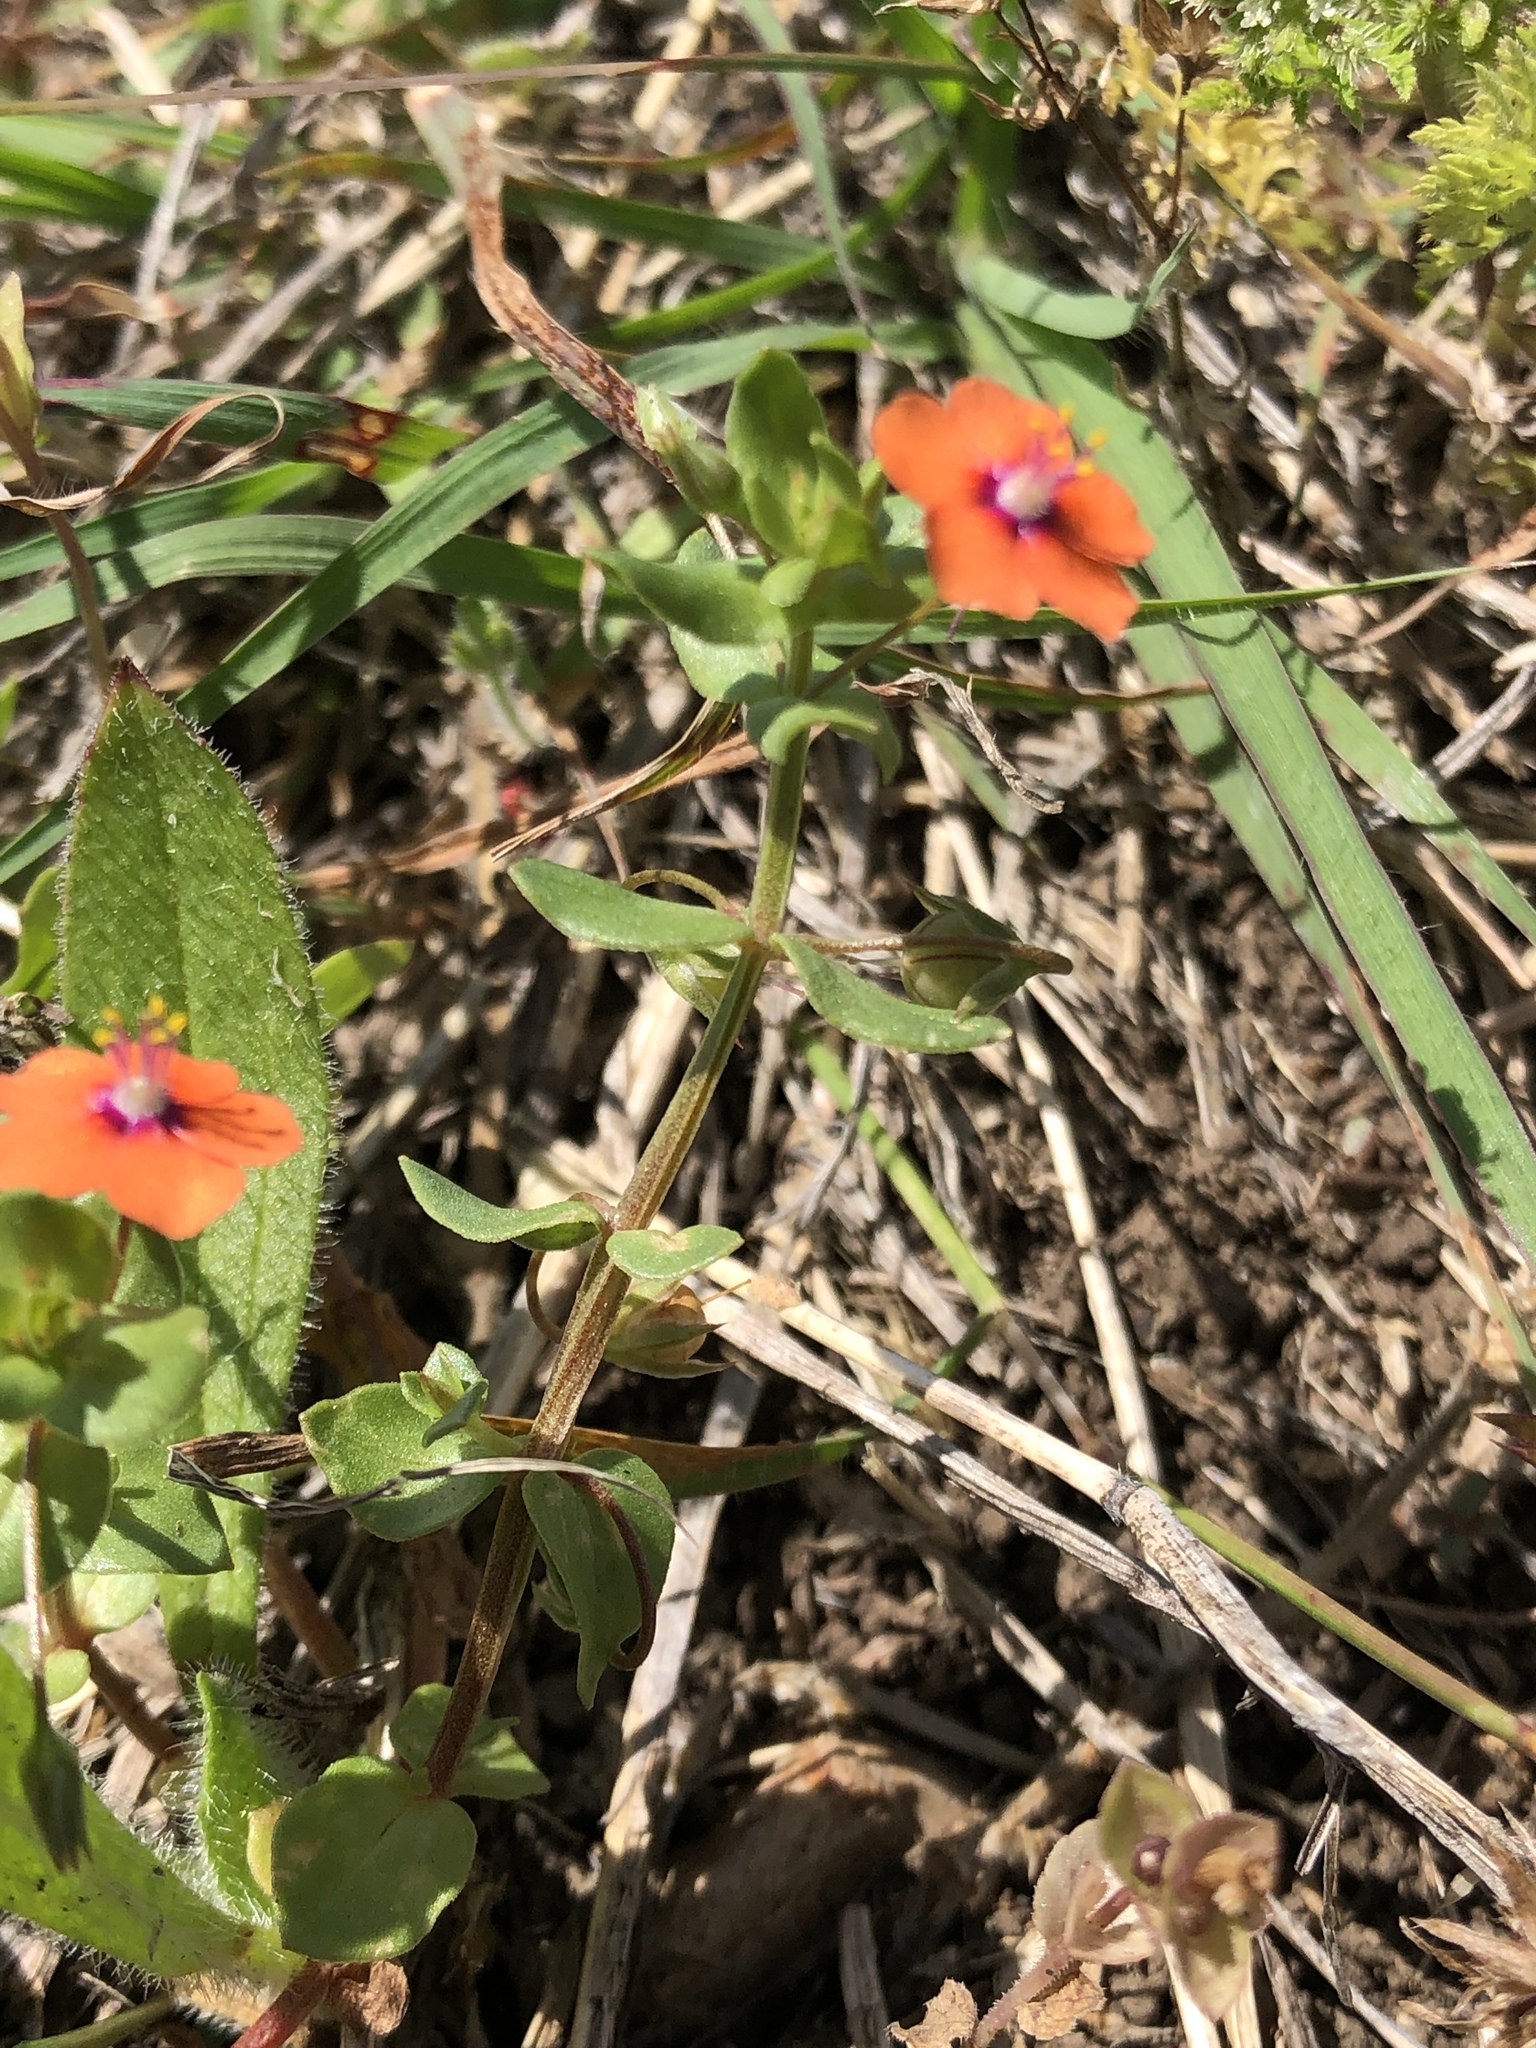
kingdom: Plantae
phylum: Tracheophyta
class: Magnoliopsida
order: Ericales
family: Primulaceae
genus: Lysimachia
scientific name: Lysimachia arvensis
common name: Scarlet pimpernel
